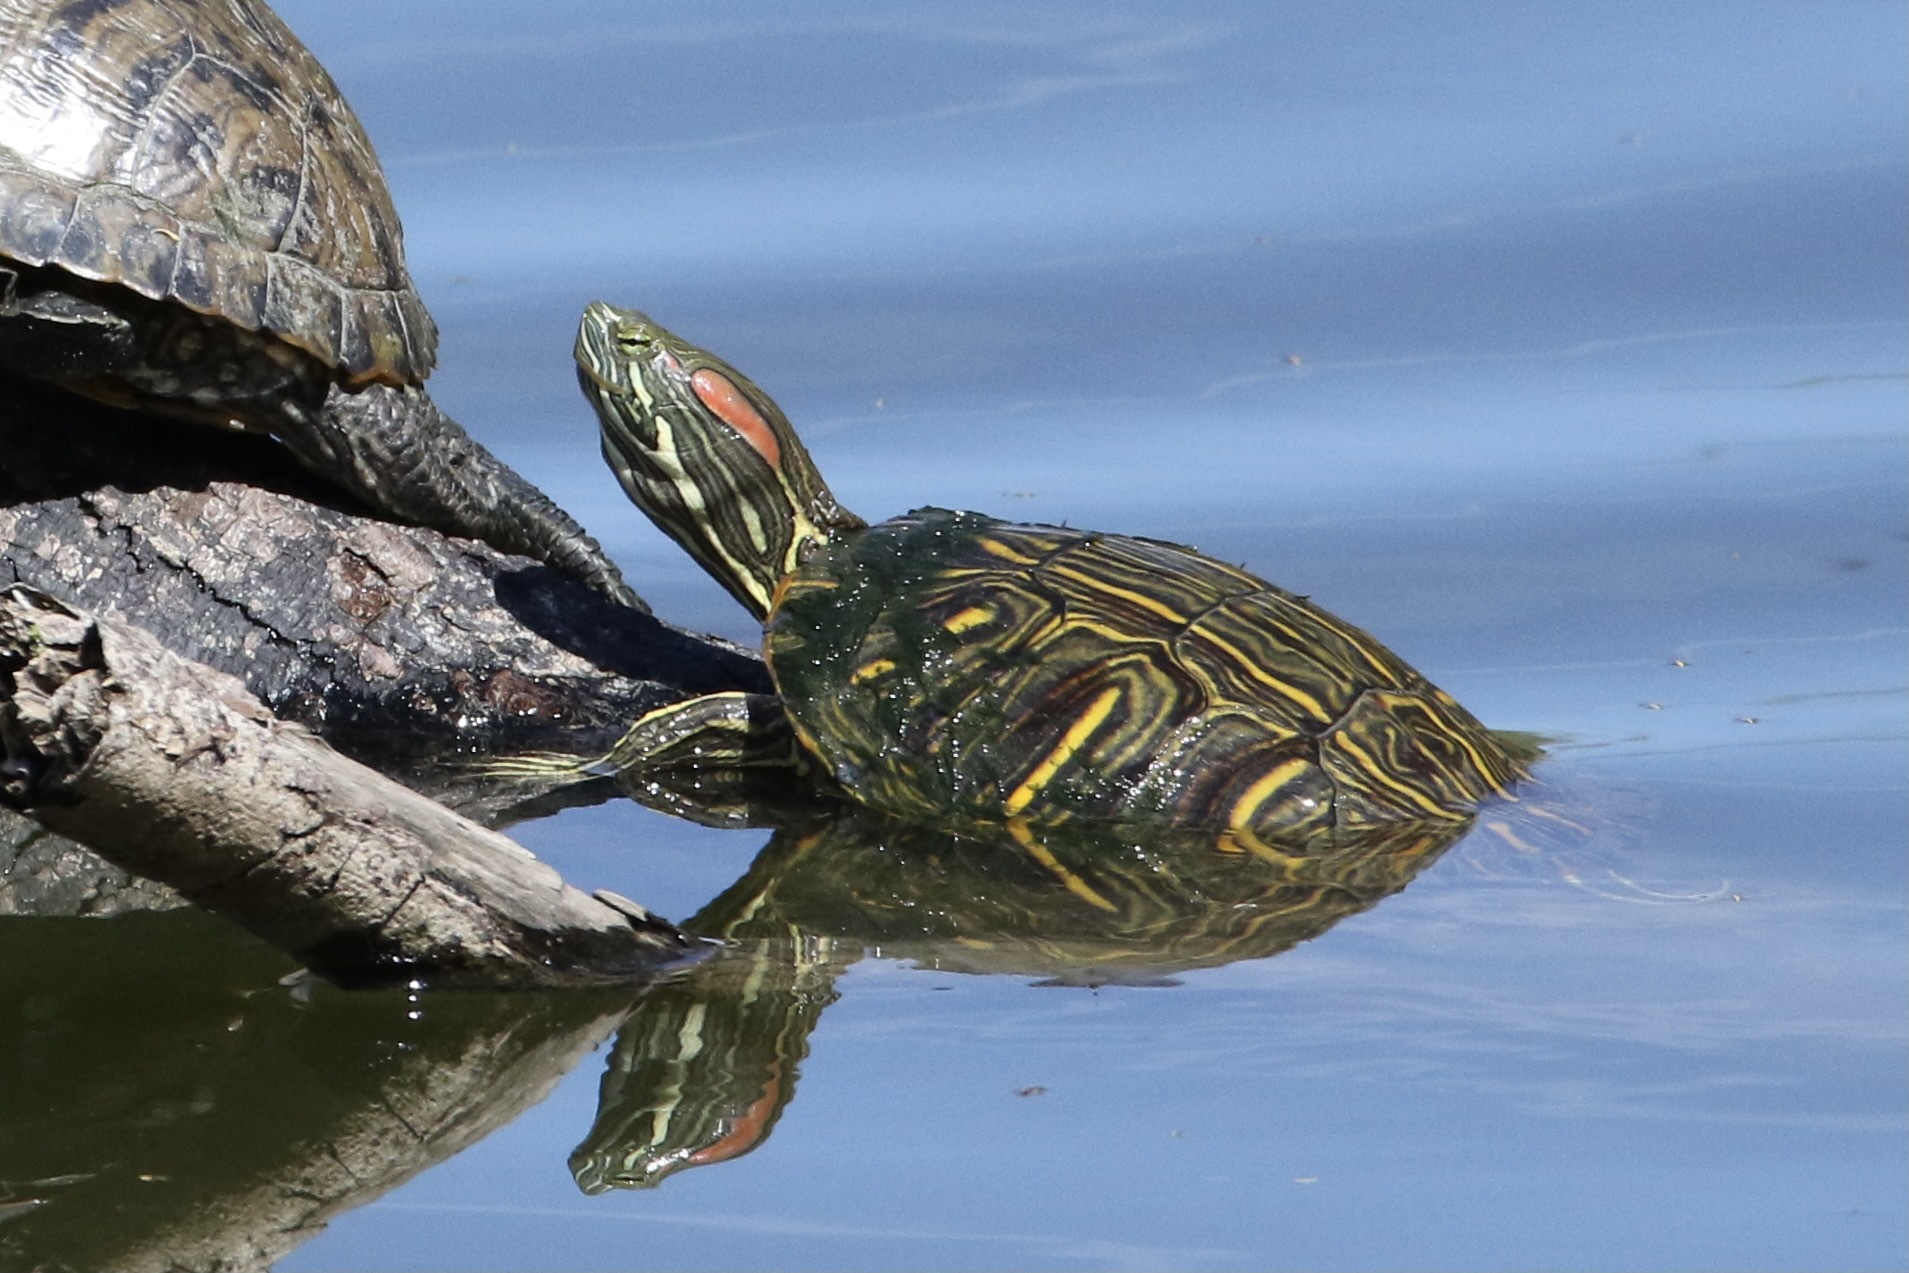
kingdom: Animalia
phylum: Chordata
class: Testudines
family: Emydidae
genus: Trachemys
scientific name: Trachemys scripta
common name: Slider
